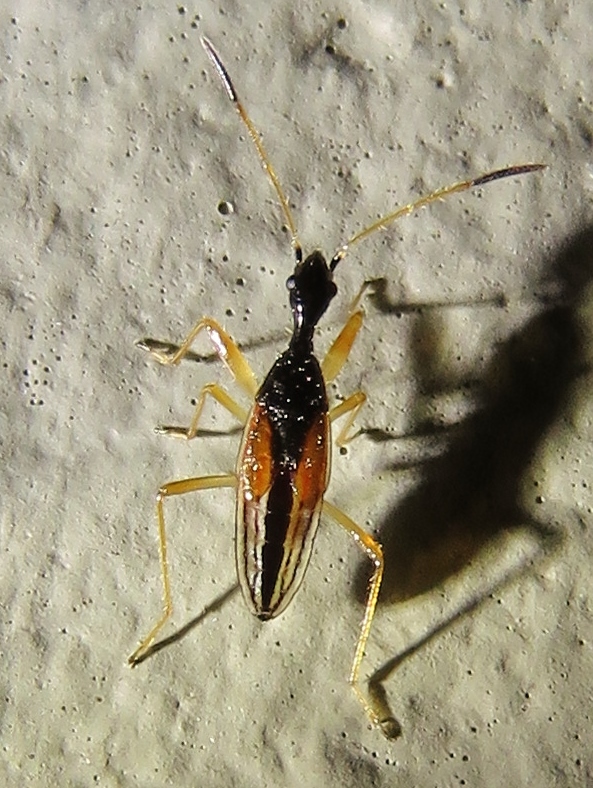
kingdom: Animalia
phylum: Arthropoda
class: Insecta
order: Hemiptera
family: Rhyparochromidae
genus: Myodocha
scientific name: Myodocha serripes
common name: Long-necked seed bug
